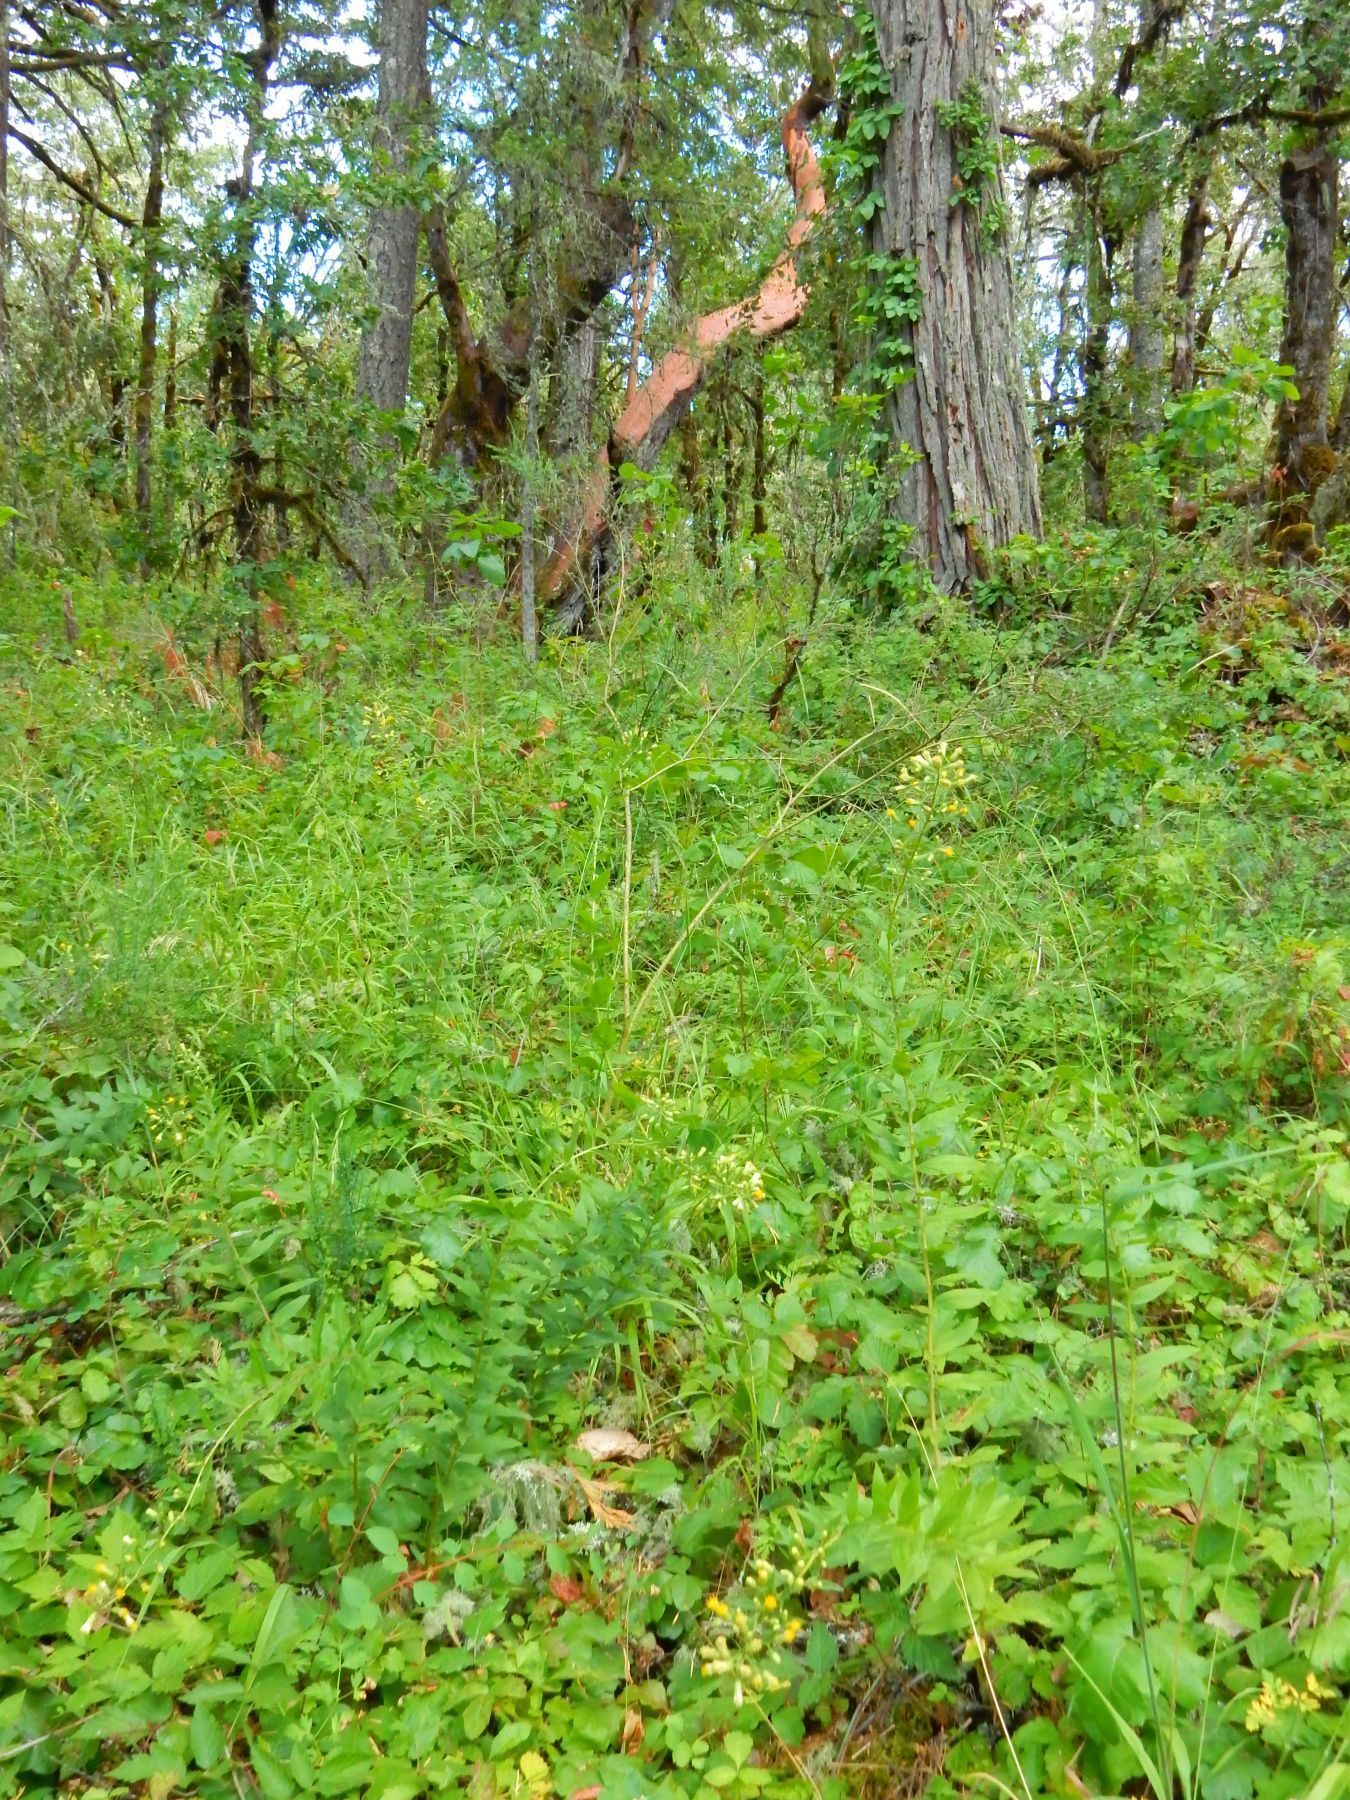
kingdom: Plantae
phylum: Tracheophyta
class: Magnoliopsida
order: Asterales
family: Asteraceae
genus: Eucephalus
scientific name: Eucephalus vialis
